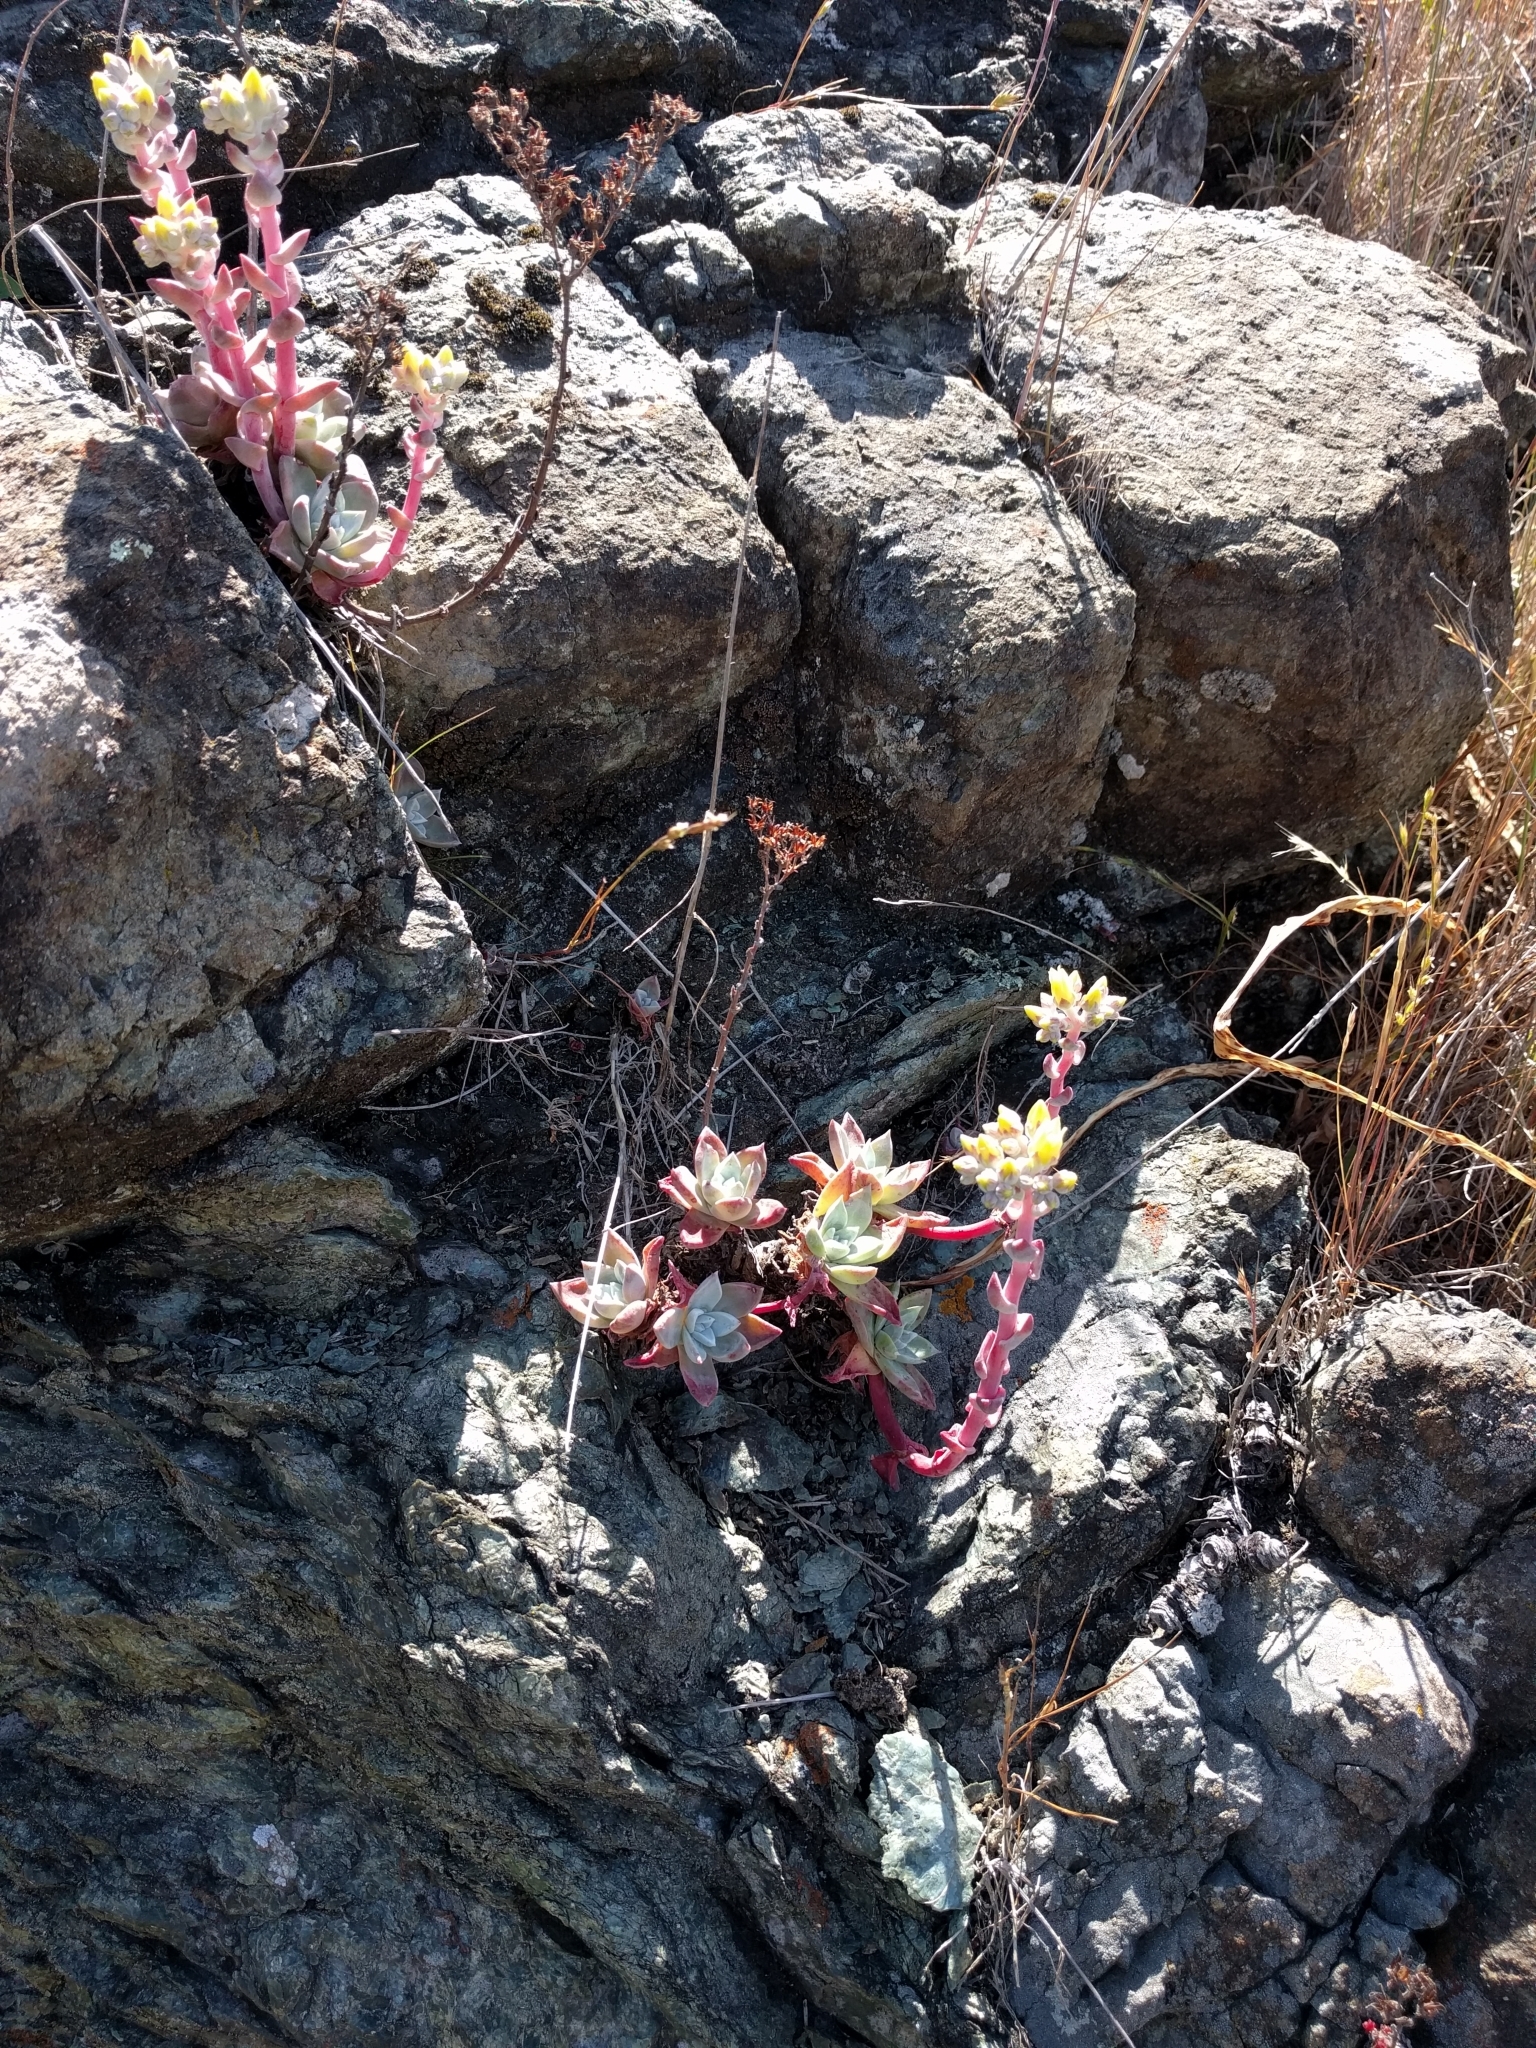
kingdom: Plantae
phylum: Tracheophyta
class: Magnoliopsida
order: Saxifragales
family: Crassulaceae
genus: Dudleya
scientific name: Dudleya farinosa
